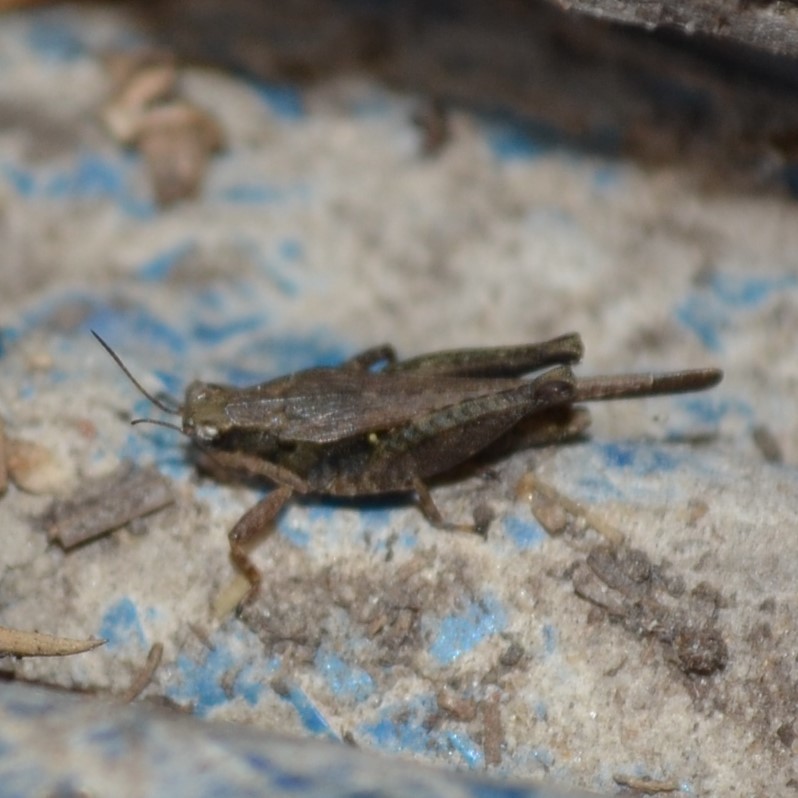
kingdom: Animalia
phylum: Arthropoda
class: Insecta
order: Orthoptera
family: Tetrigidae
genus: Tettigidea
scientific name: Tettigidea laterale
